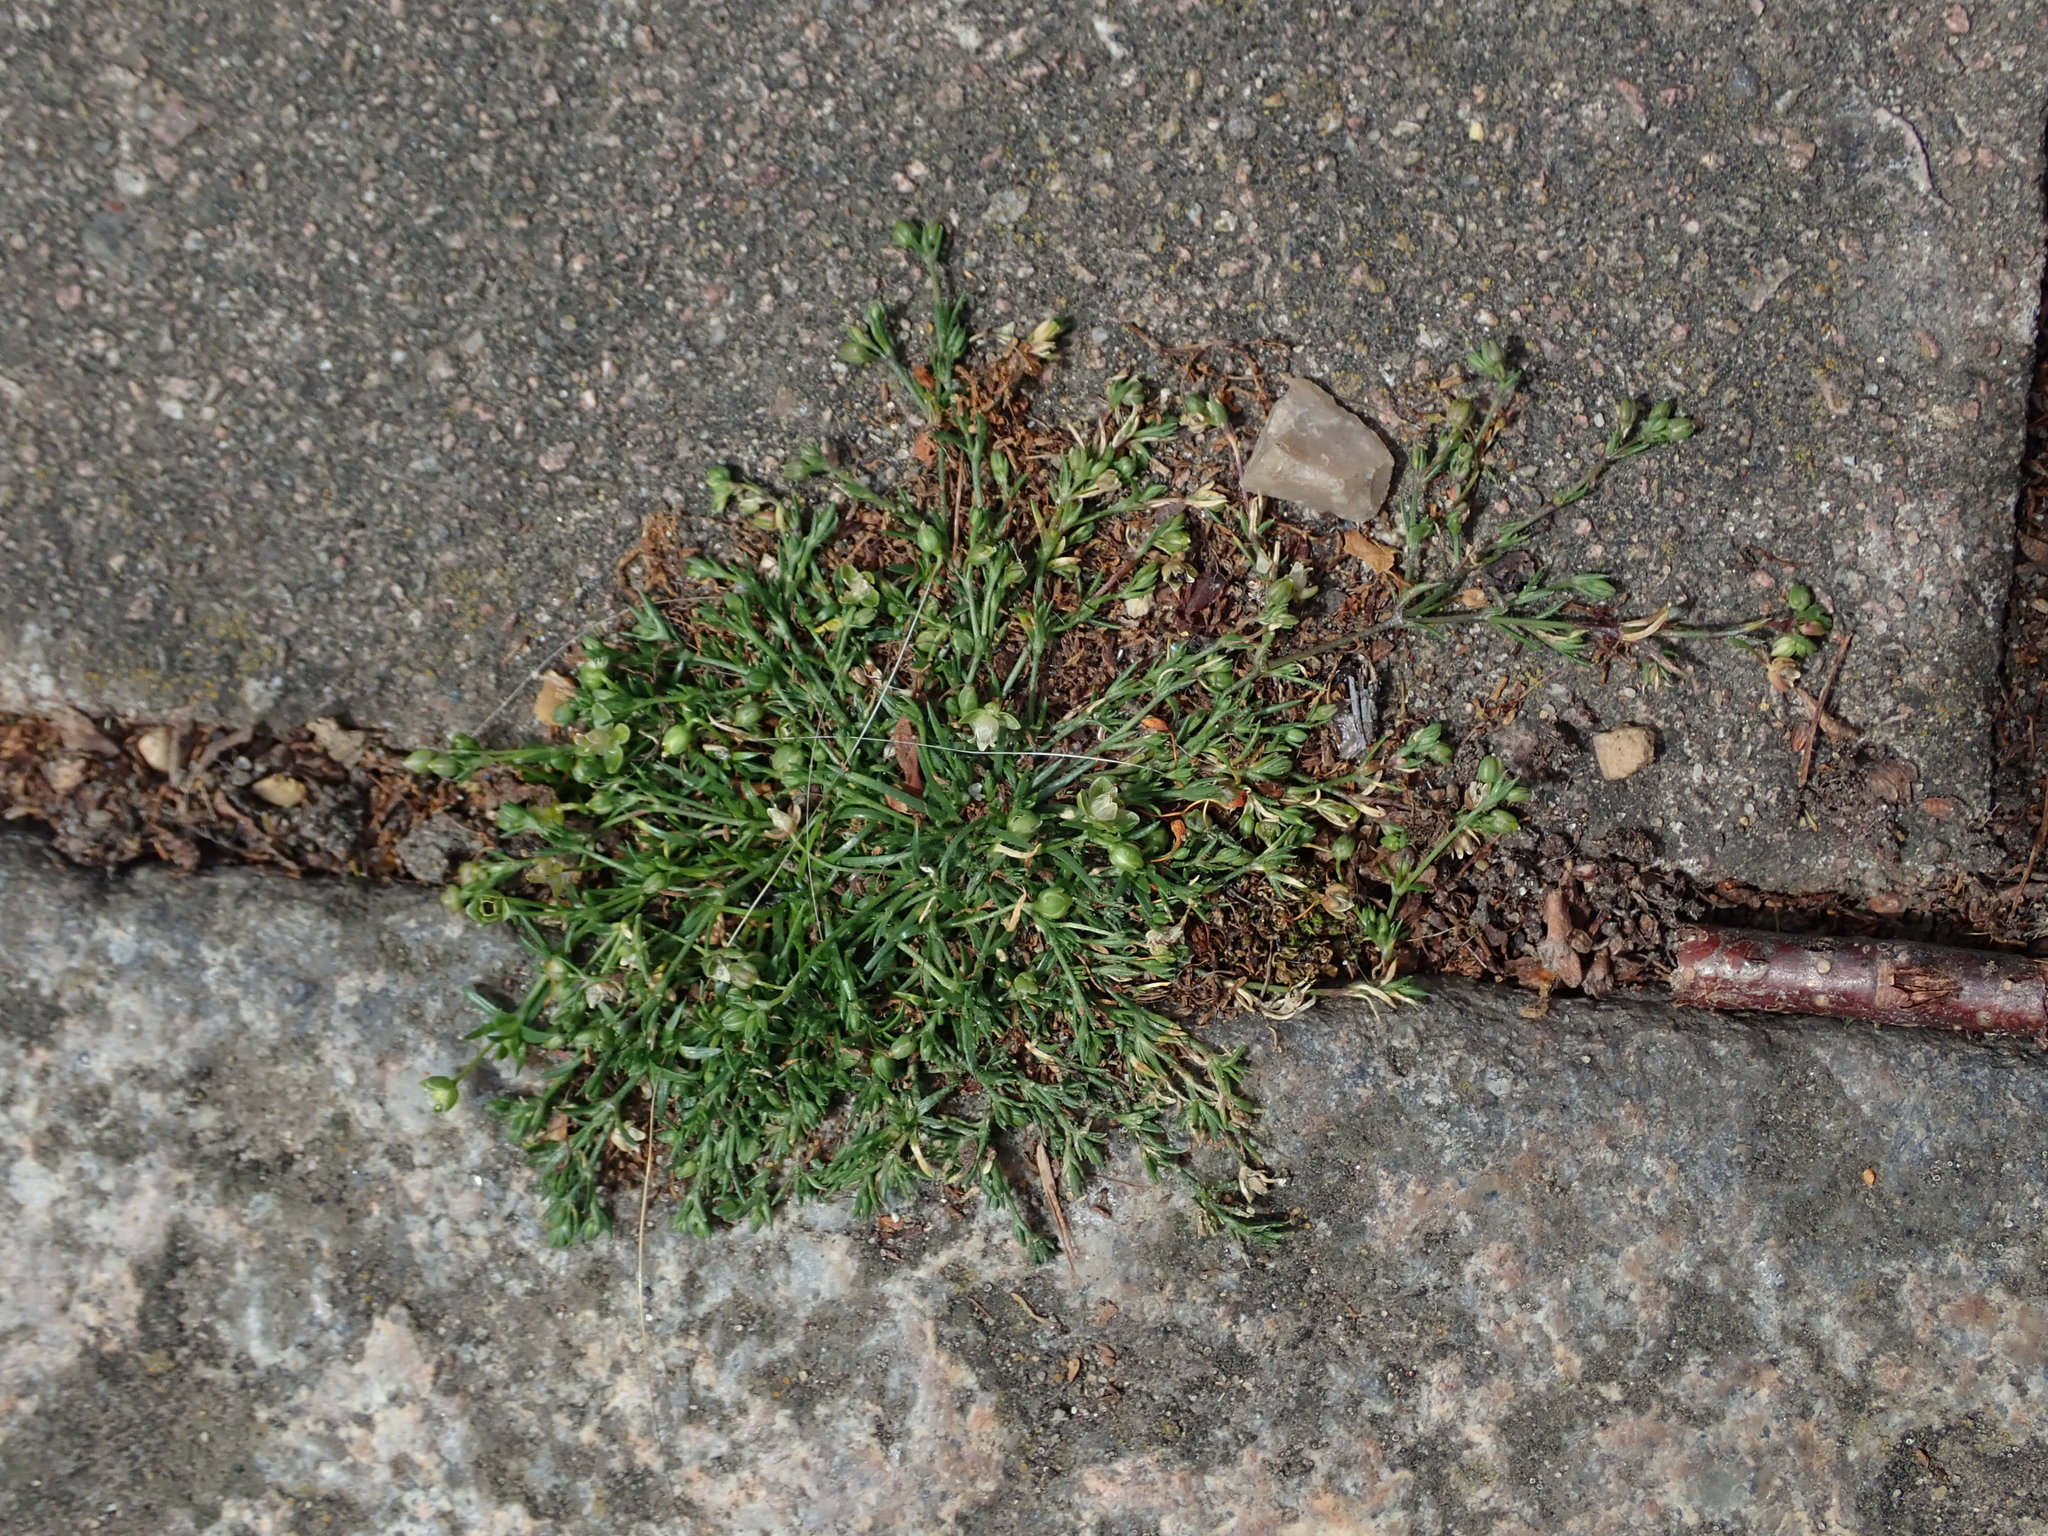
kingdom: Plantae
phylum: Tracheophyta
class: Magnoliopsida
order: Caryophyllales
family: Caryophyllaceae
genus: Sagina
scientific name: Sagina procumbens
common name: Procumbent pearlwort
